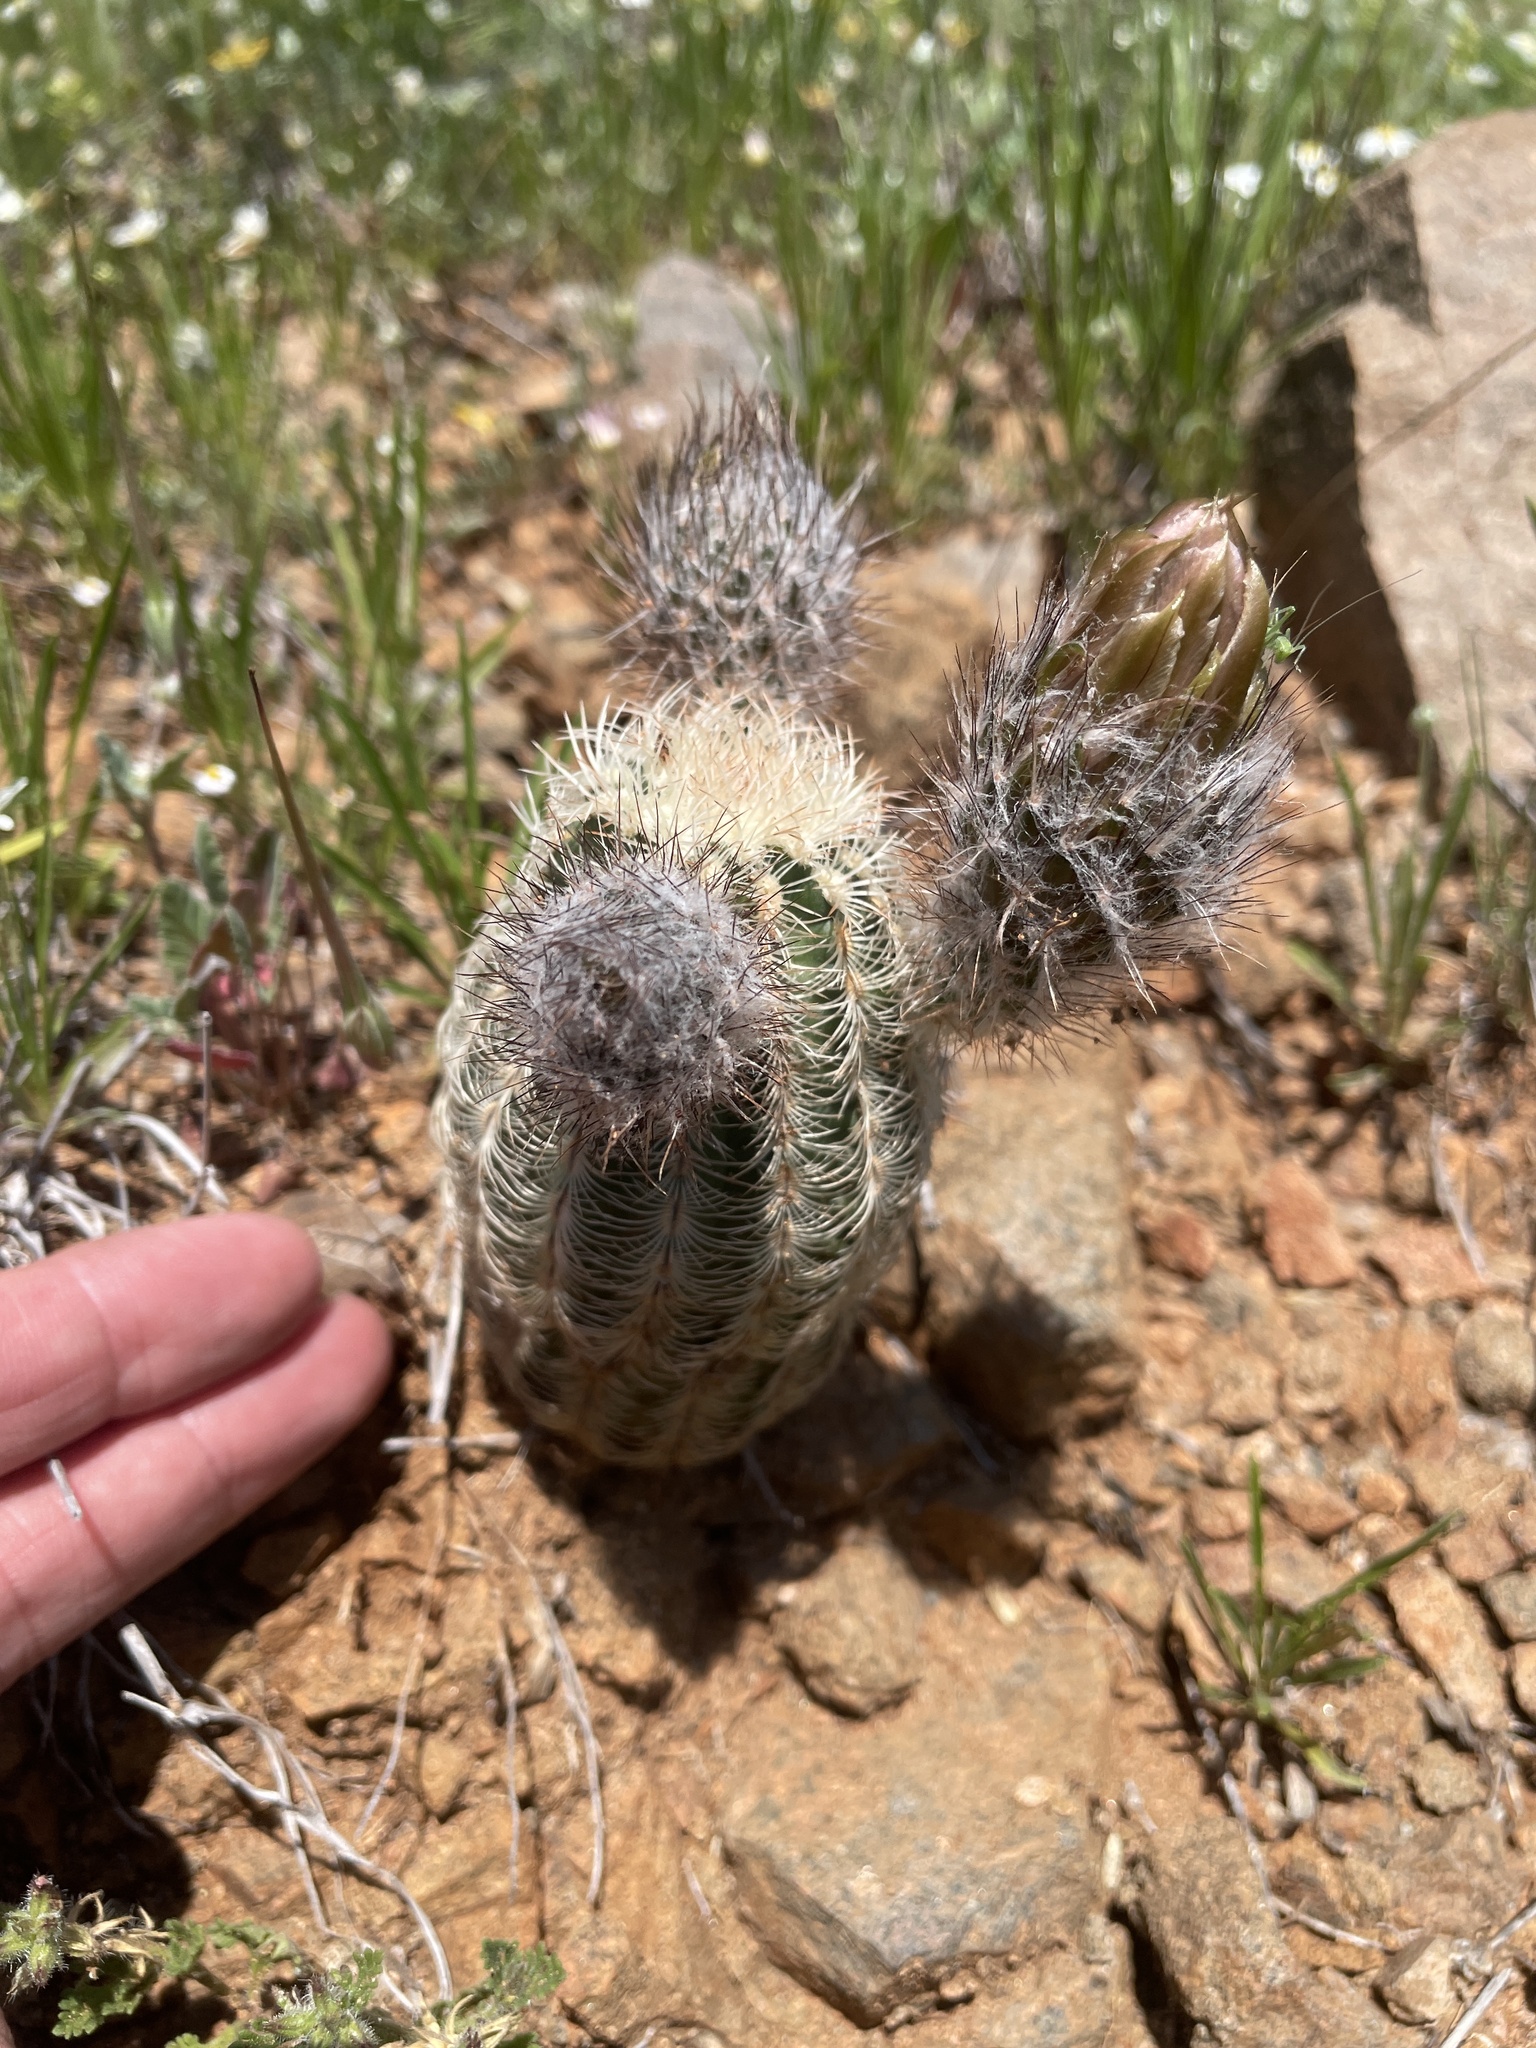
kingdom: Plantae
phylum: Tracheophyta
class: Magnoliopsida
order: Caryophyllales
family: Cactaceae
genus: Echinocereus
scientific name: Echinocereus reichenbachii
